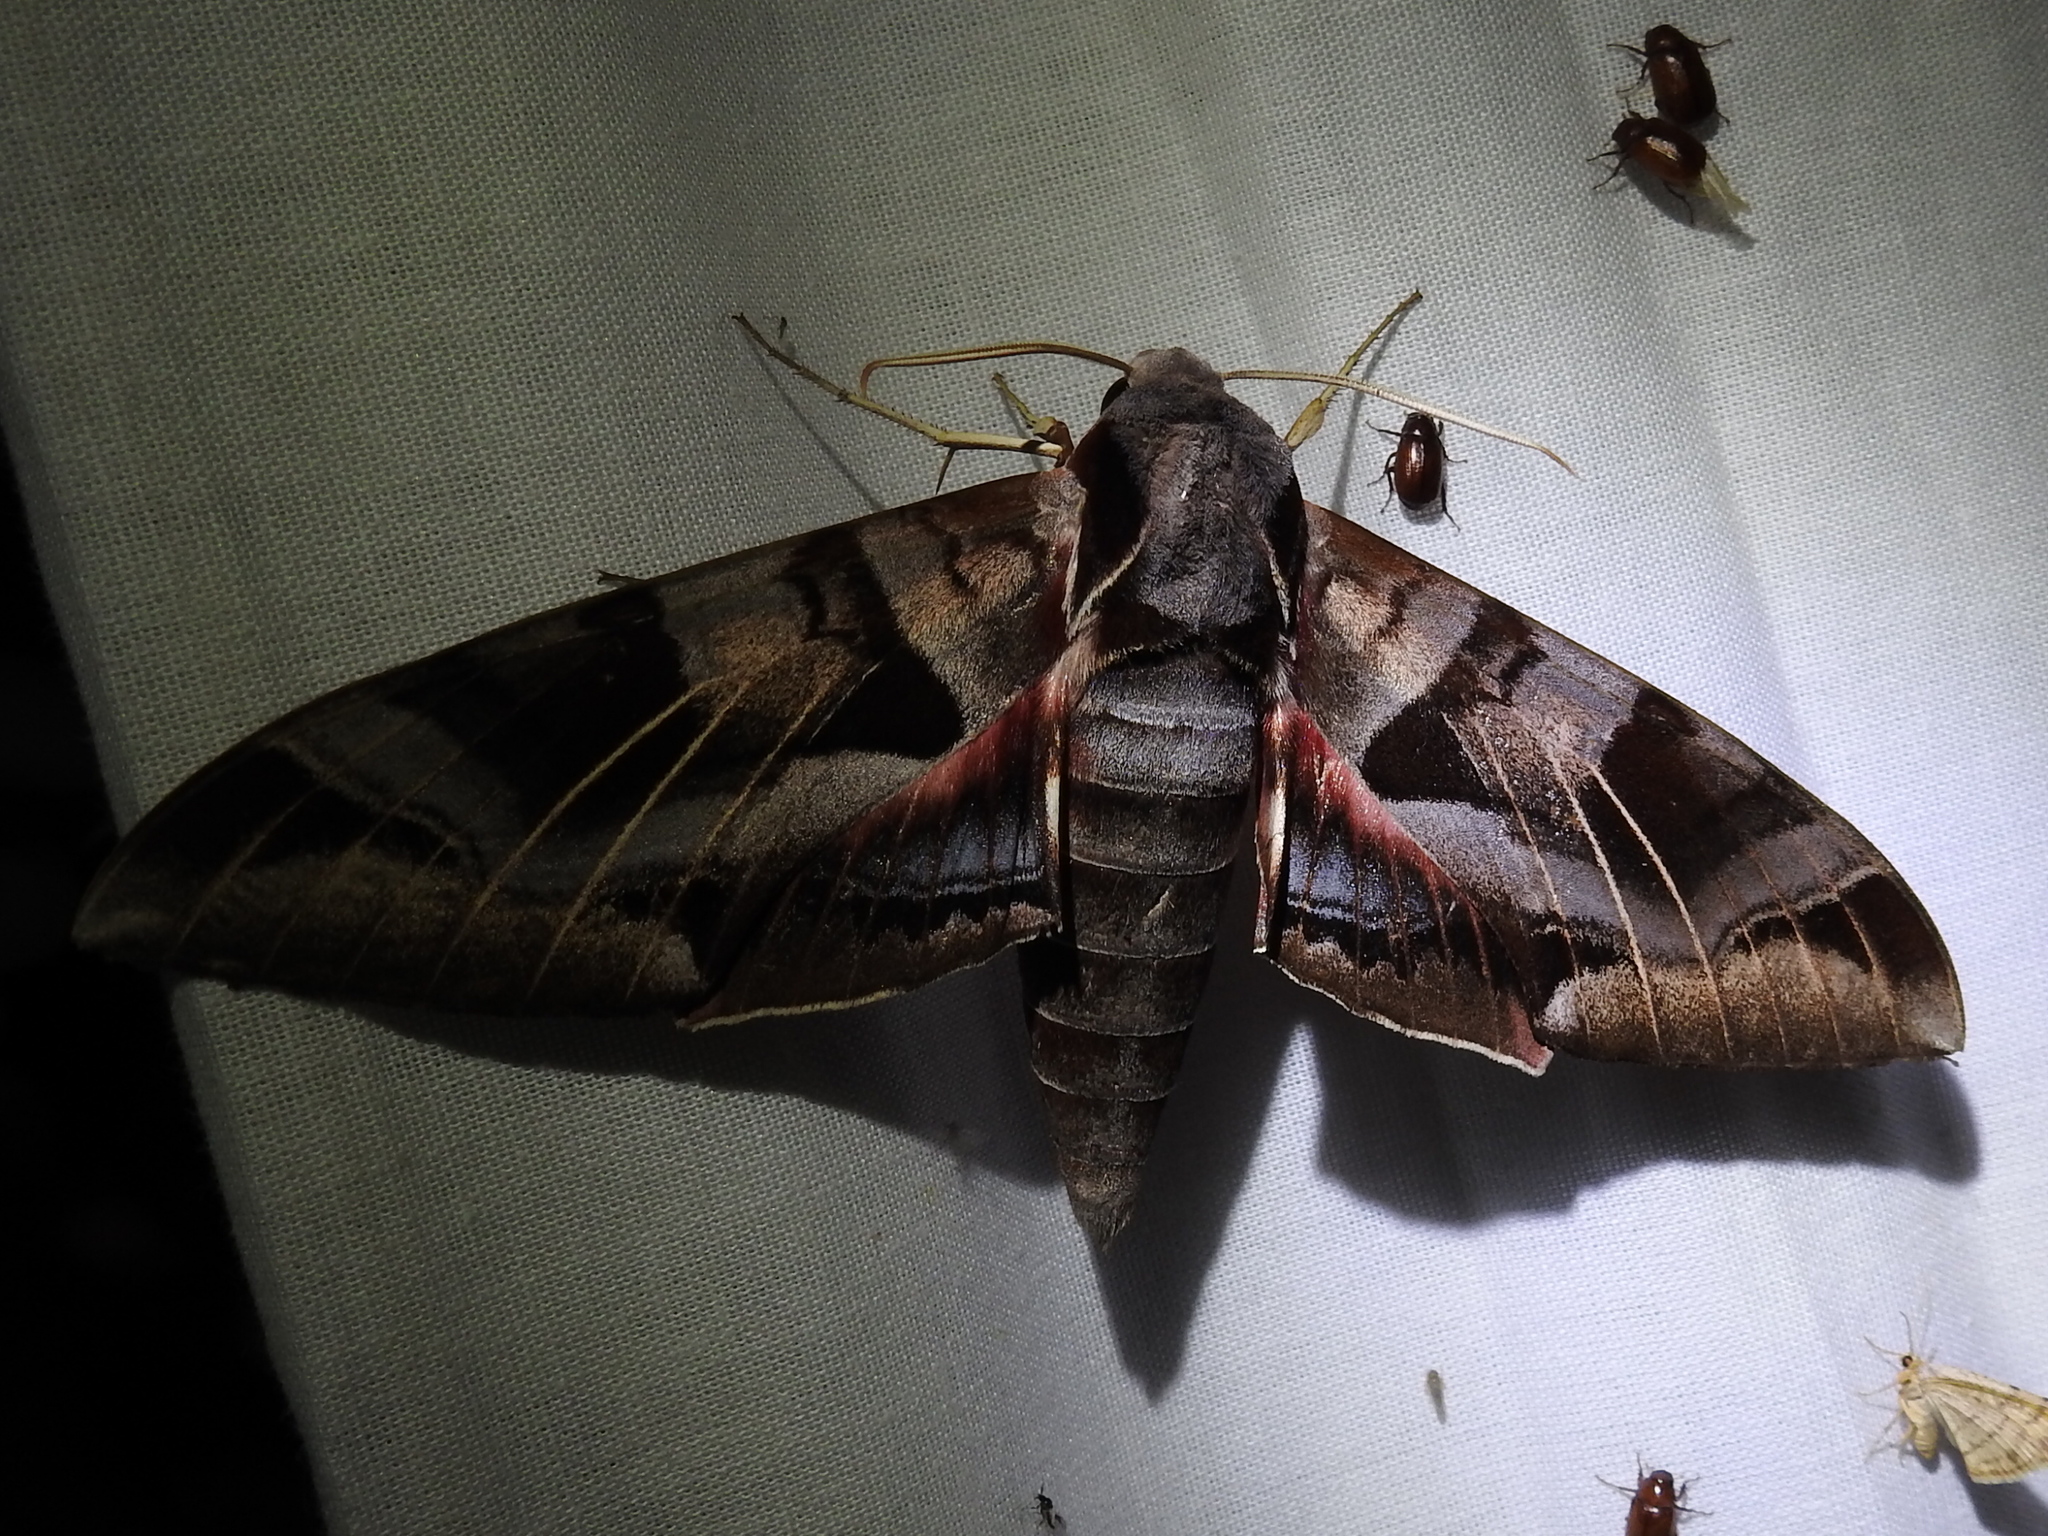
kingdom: Animalia
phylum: Arthropoda
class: Insecta
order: Lepidoptera
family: Sphingidae
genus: Eumorpha
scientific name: Eumorpha typhon
